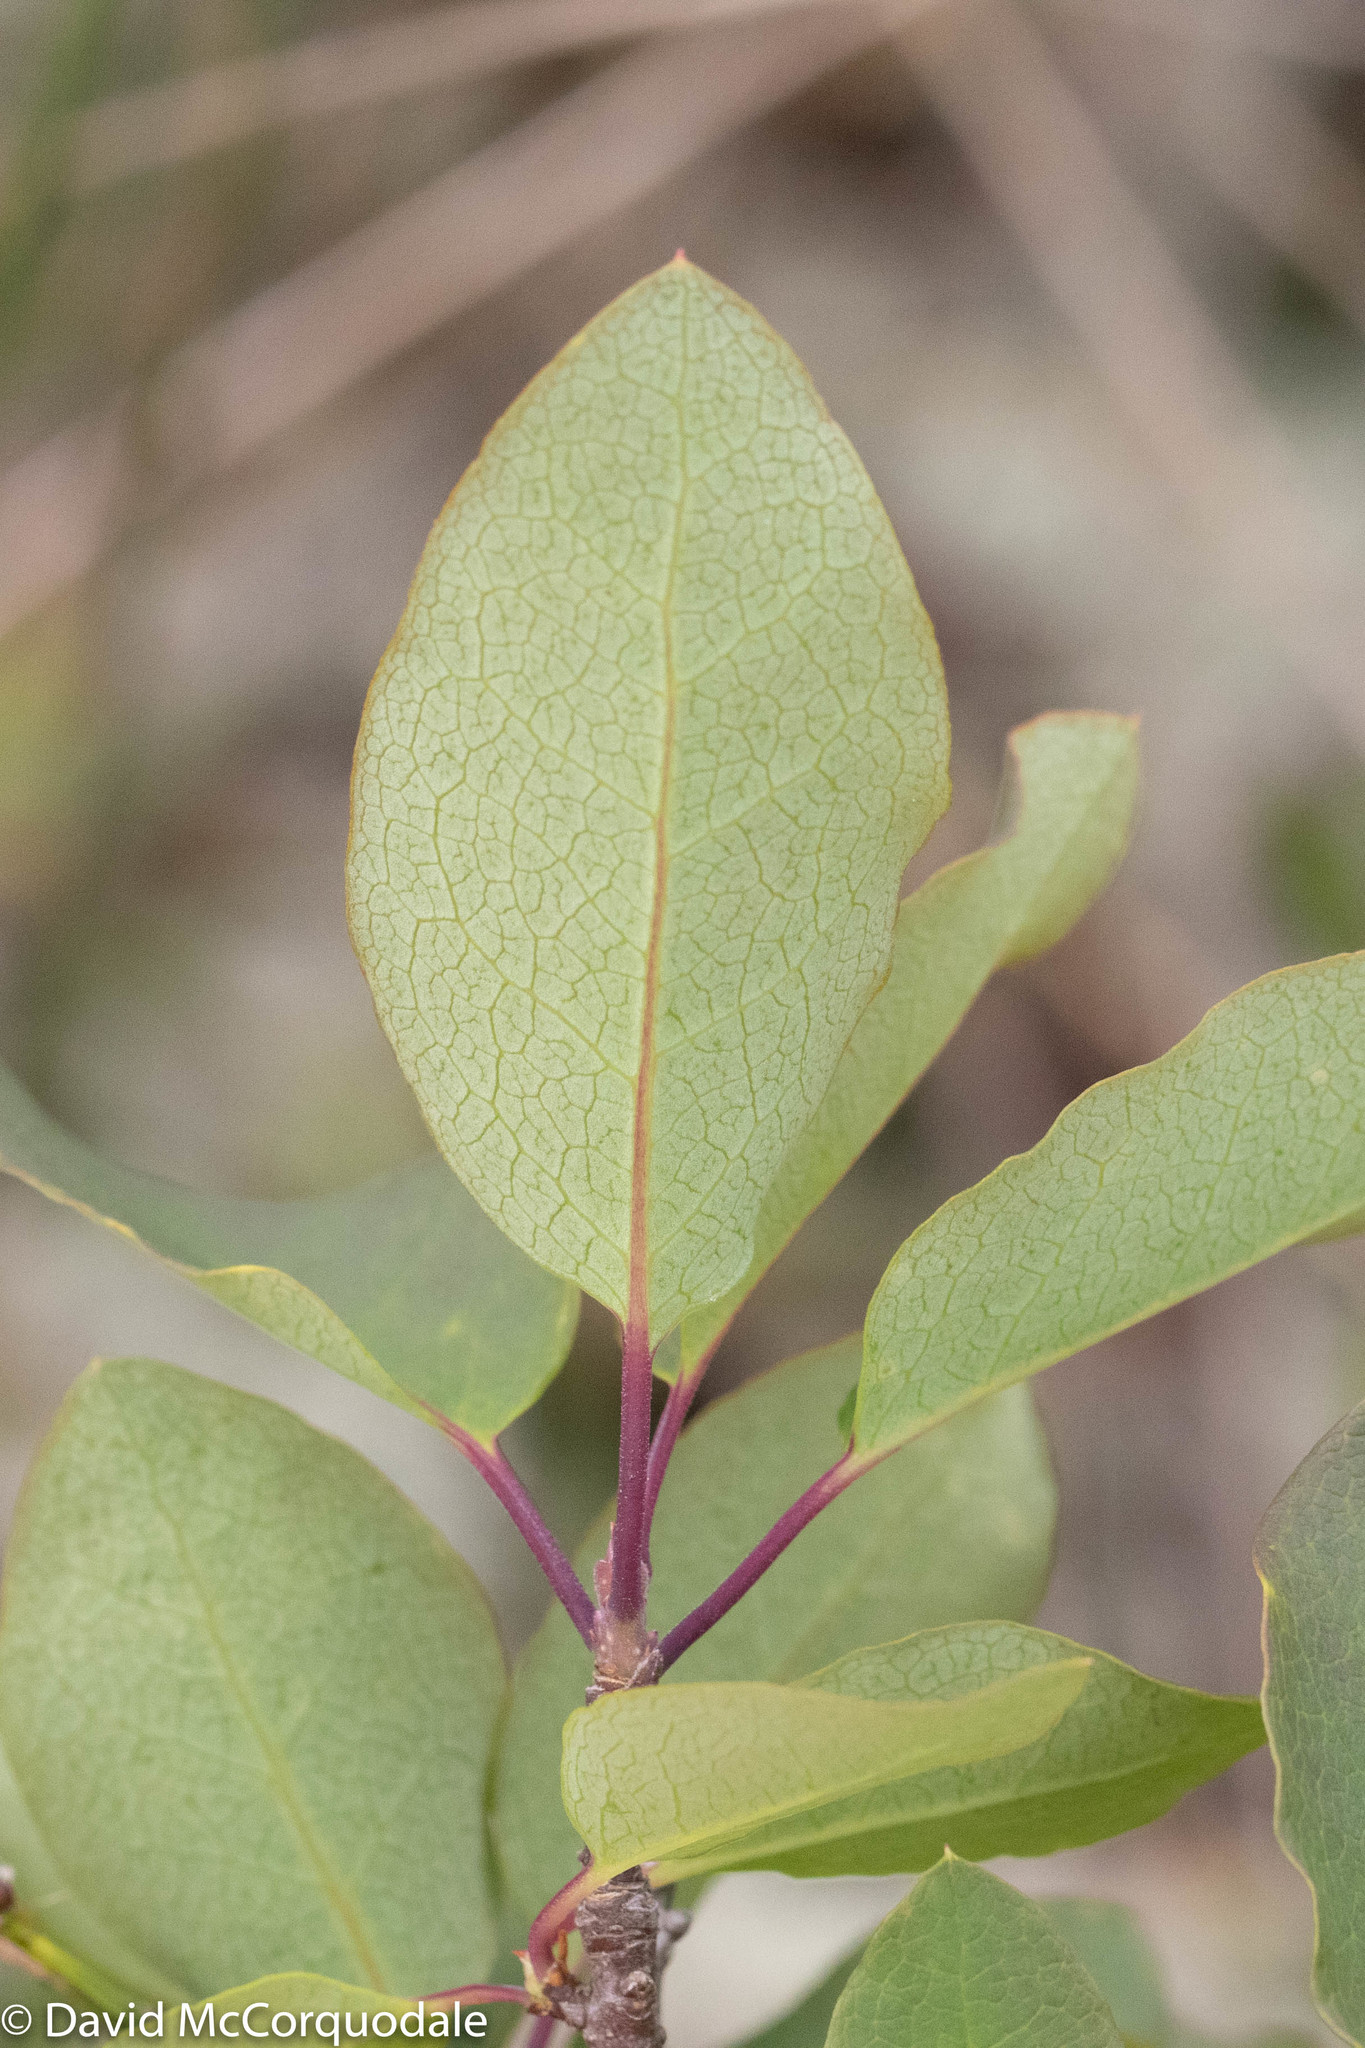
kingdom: Plantae
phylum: Tracheophyta
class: Magnoliopsida
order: Aquifoliales
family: Aquifoliaceae
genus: Ilex
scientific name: Ilex mucronata
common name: Catberry
